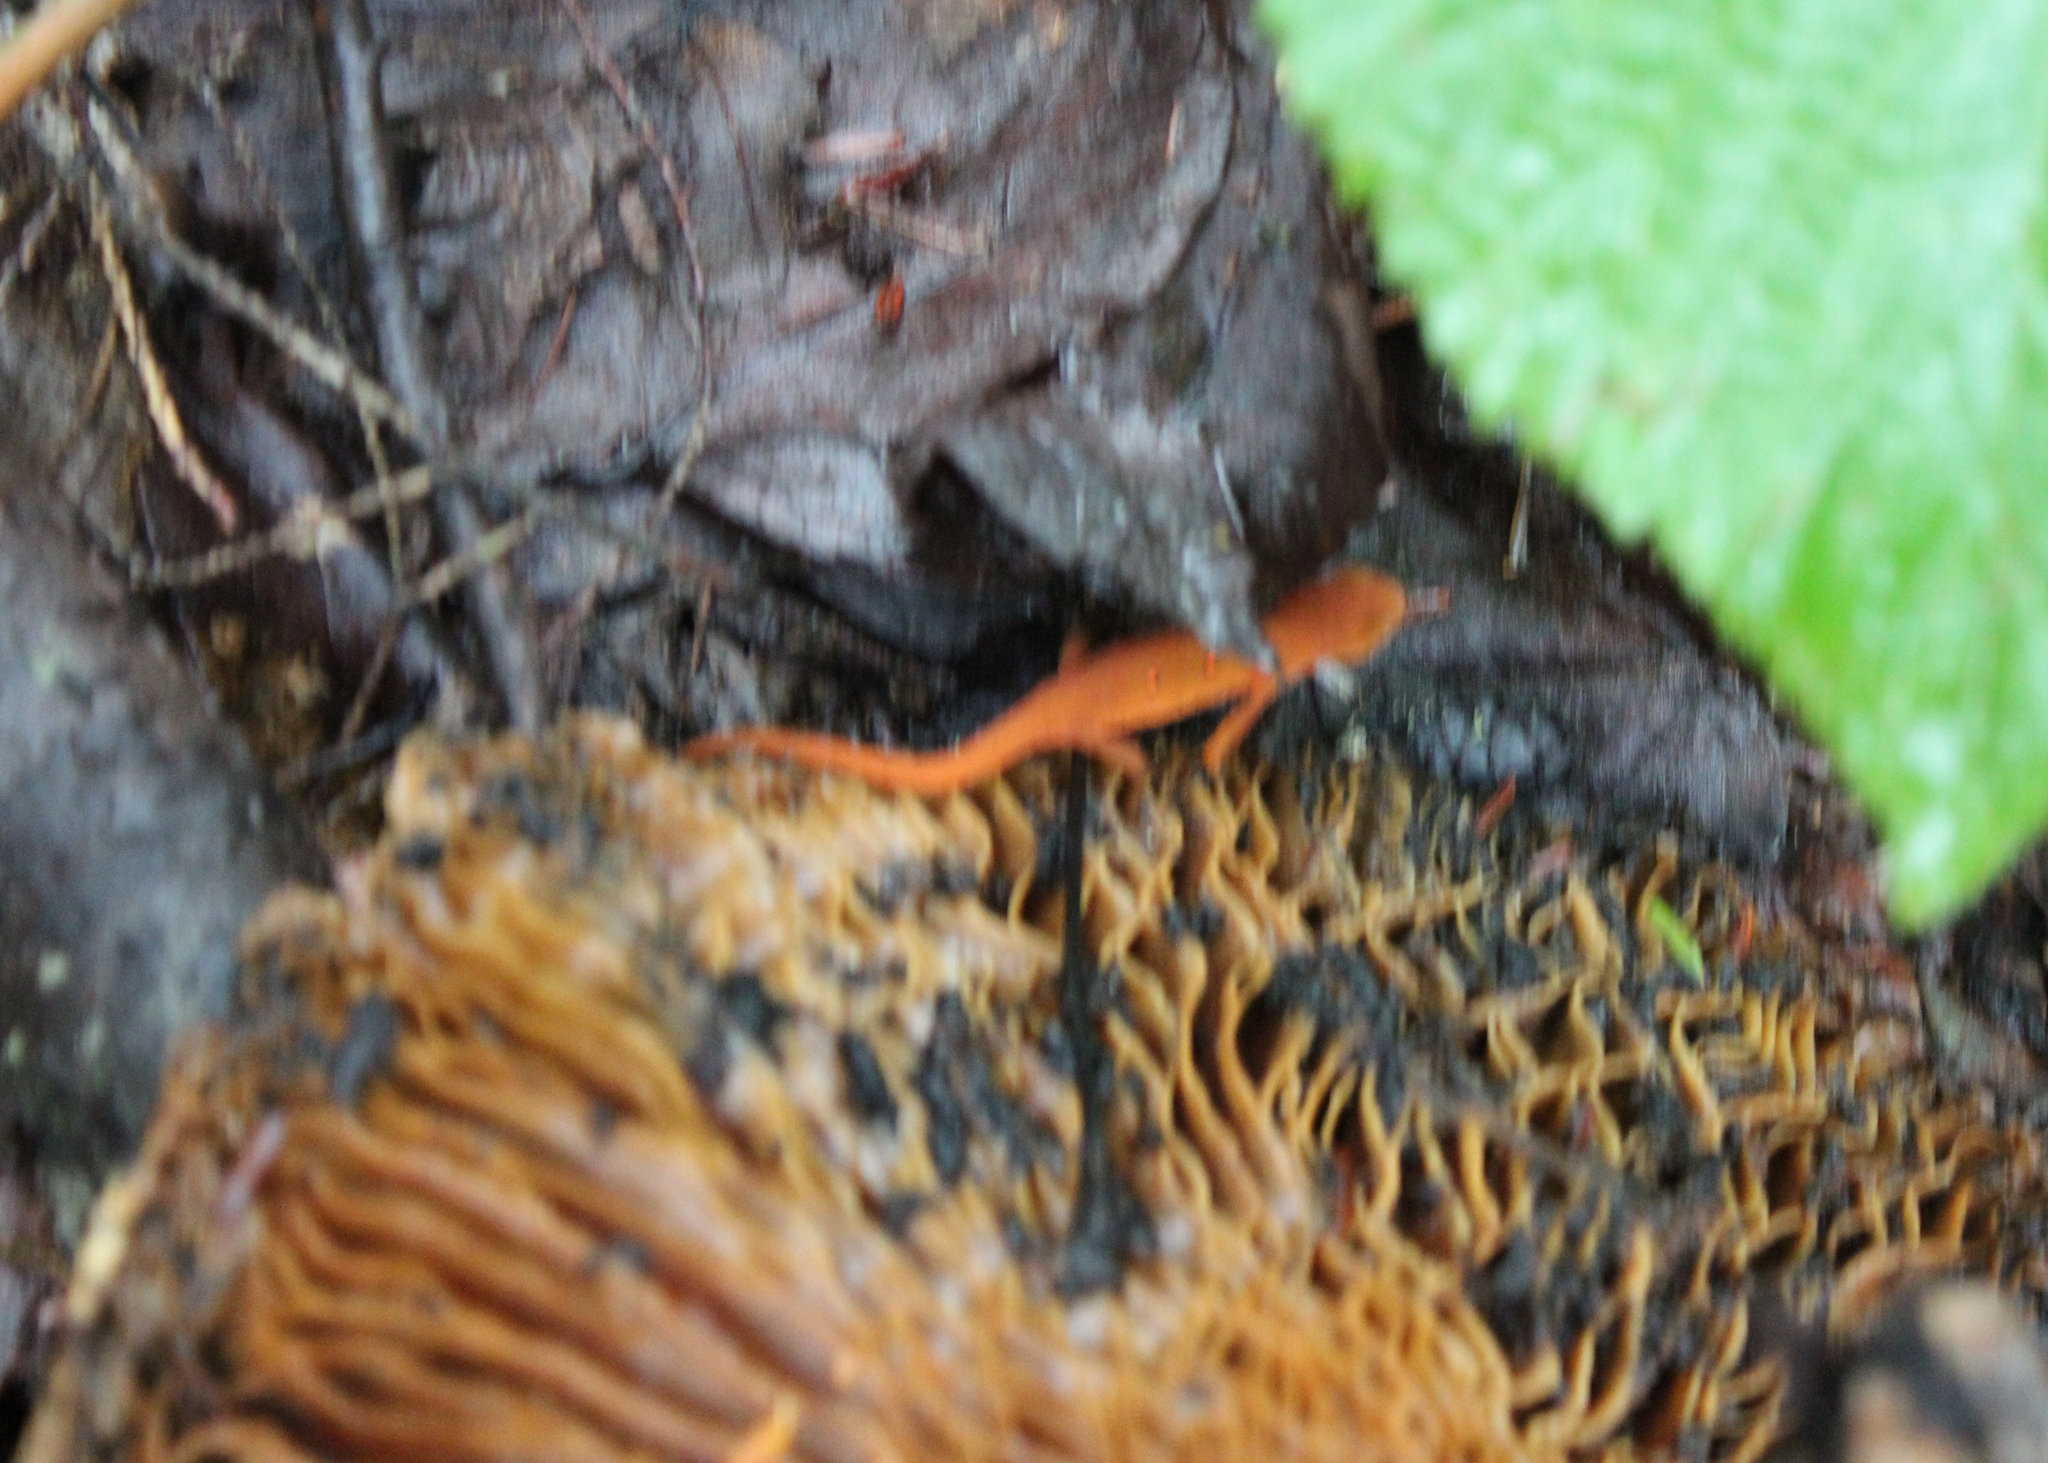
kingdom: Animalia
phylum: Chordata
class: Amphibia
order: Caudata
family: Salamandridae
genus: Notophthalmus
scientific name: Notophthalmus viridescens
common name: Eastern newt
